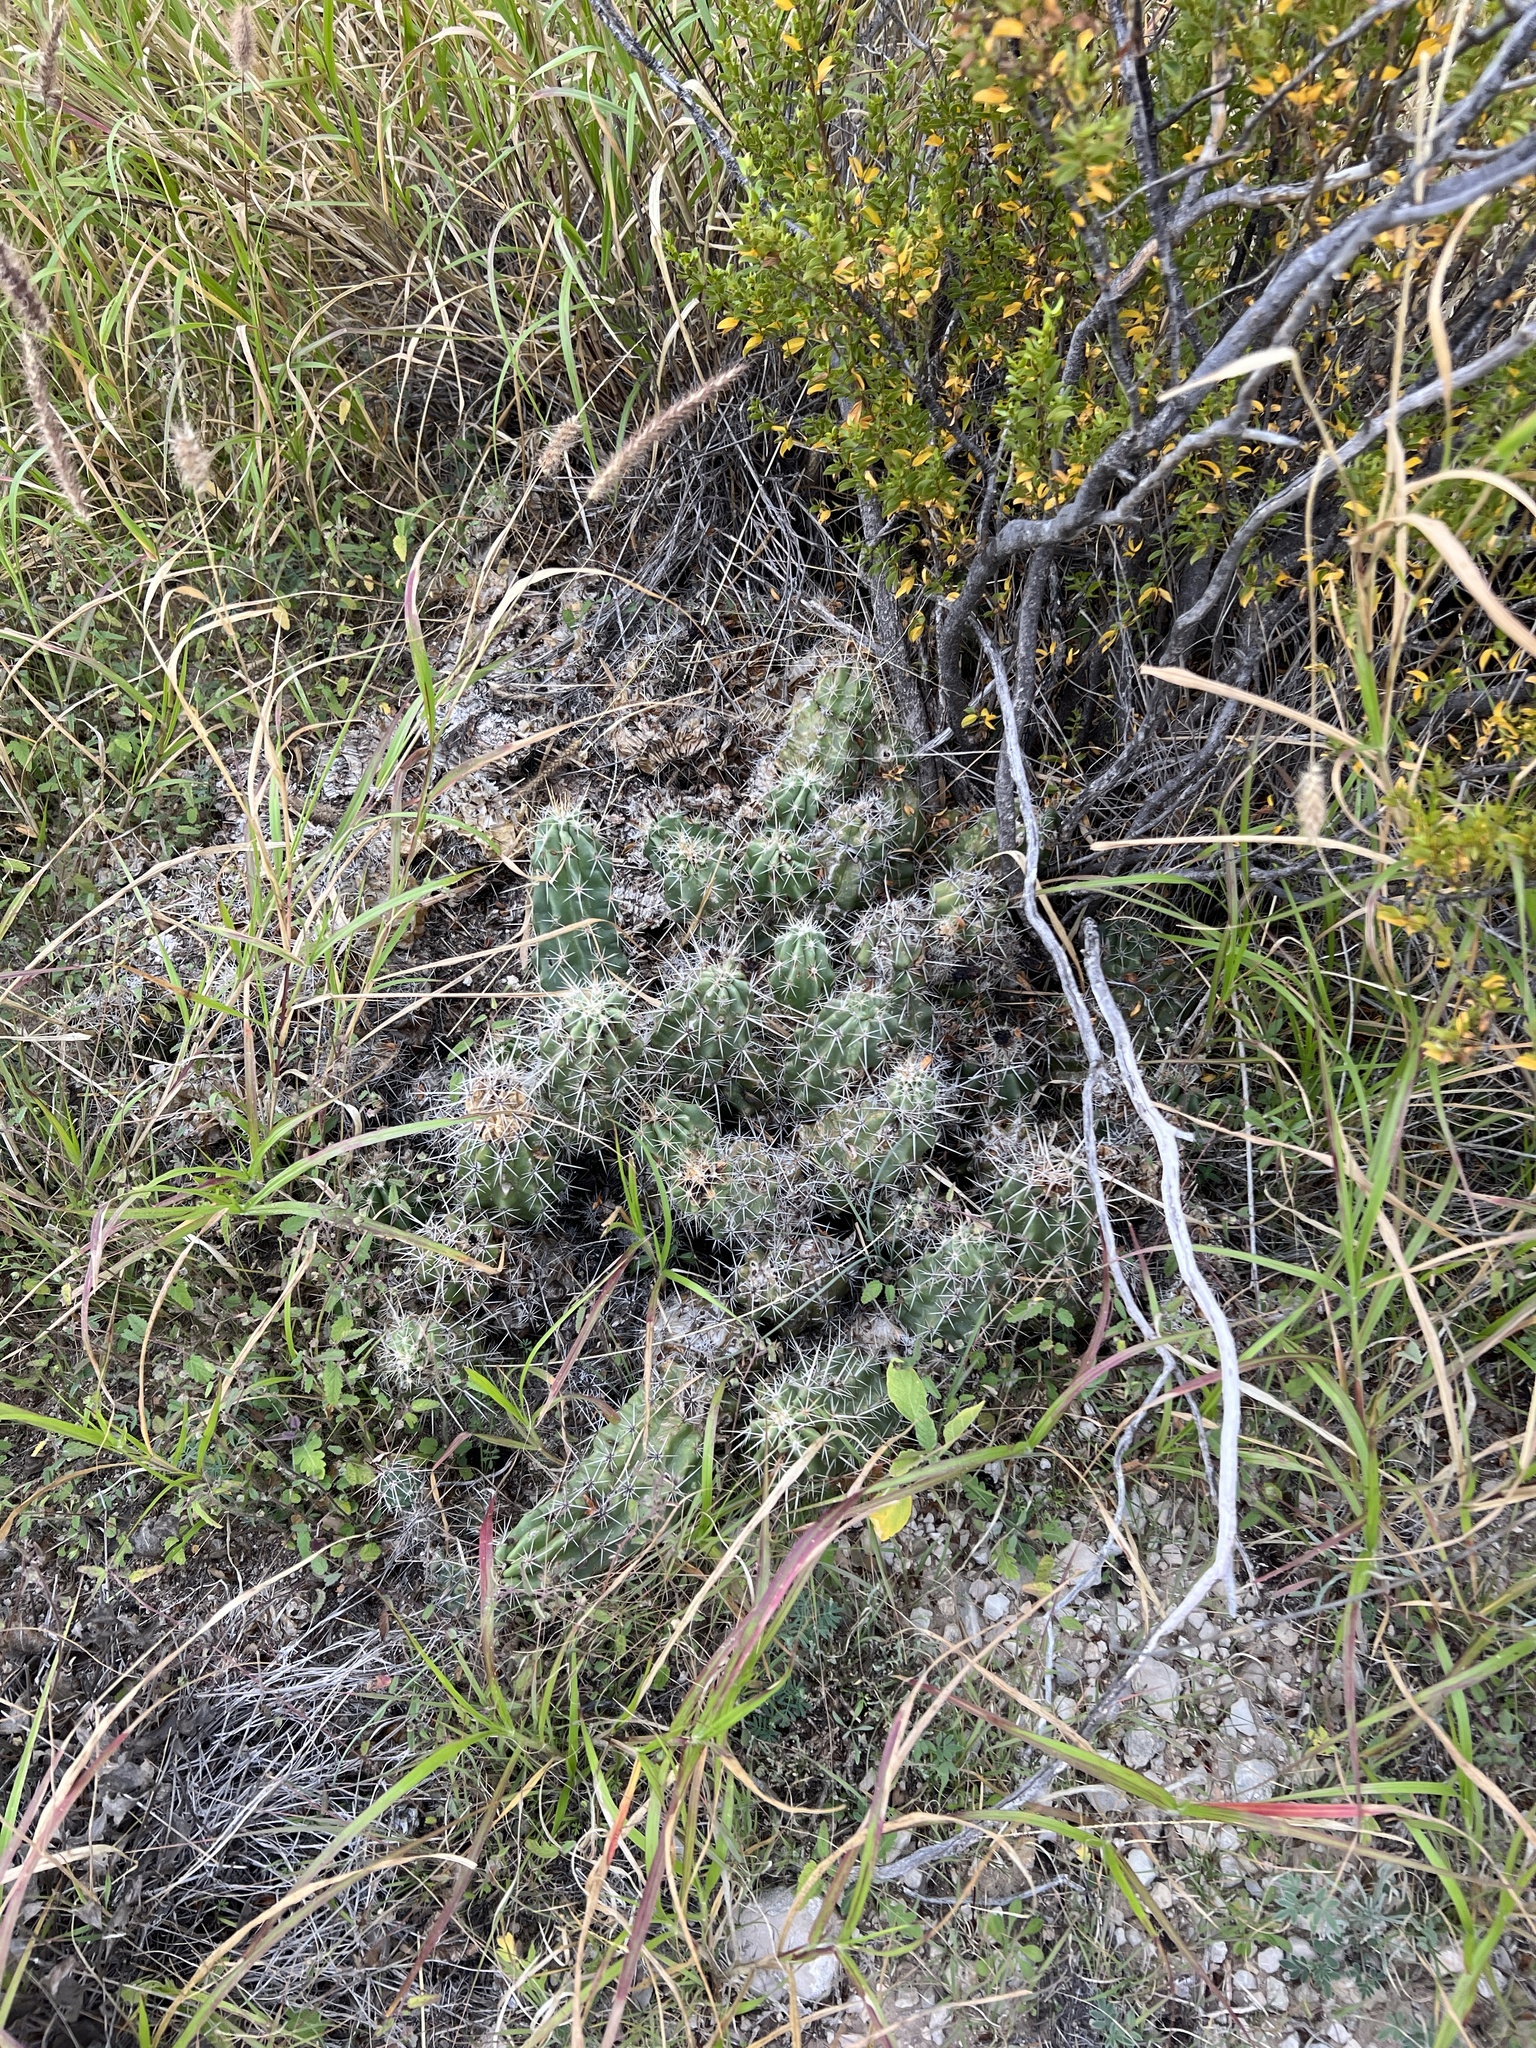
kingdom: Plantae
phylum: Tracheophyta
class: Magnoliopsida
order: Caryophyllales
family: Cactaceae
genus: Echinocereus
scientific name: Echinocereus enneacanthus
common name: Pitaya
